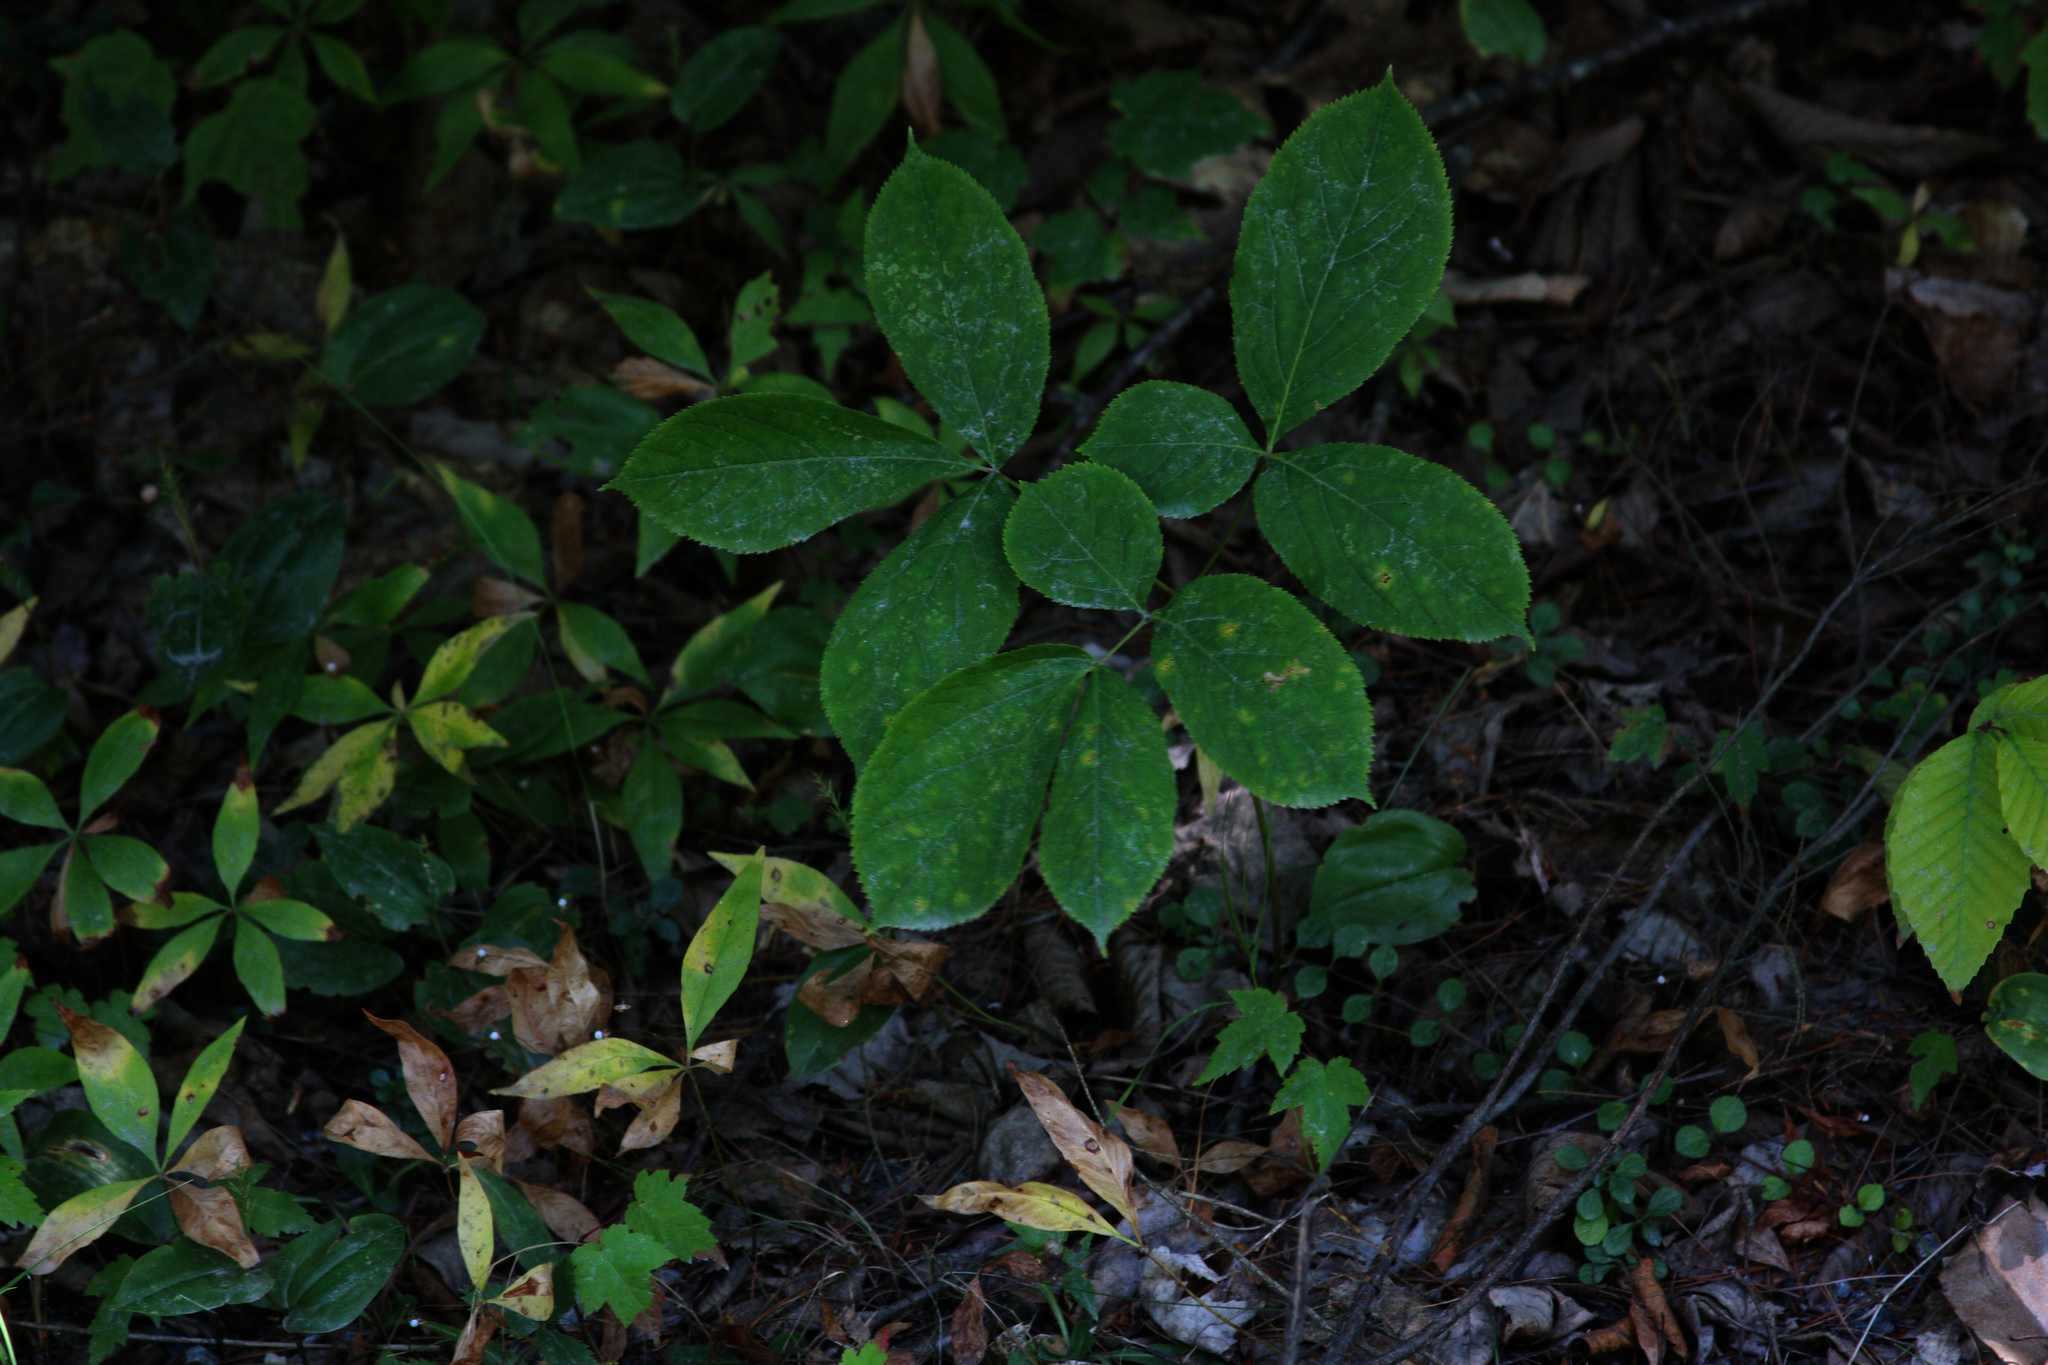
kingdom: Plantae
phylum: Tracheophyta
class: Magnoliopsida
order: Apiales
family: Araliaceae
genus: Aralia
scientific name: Aralia nudicaulis
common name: Wild sarsaparilla
